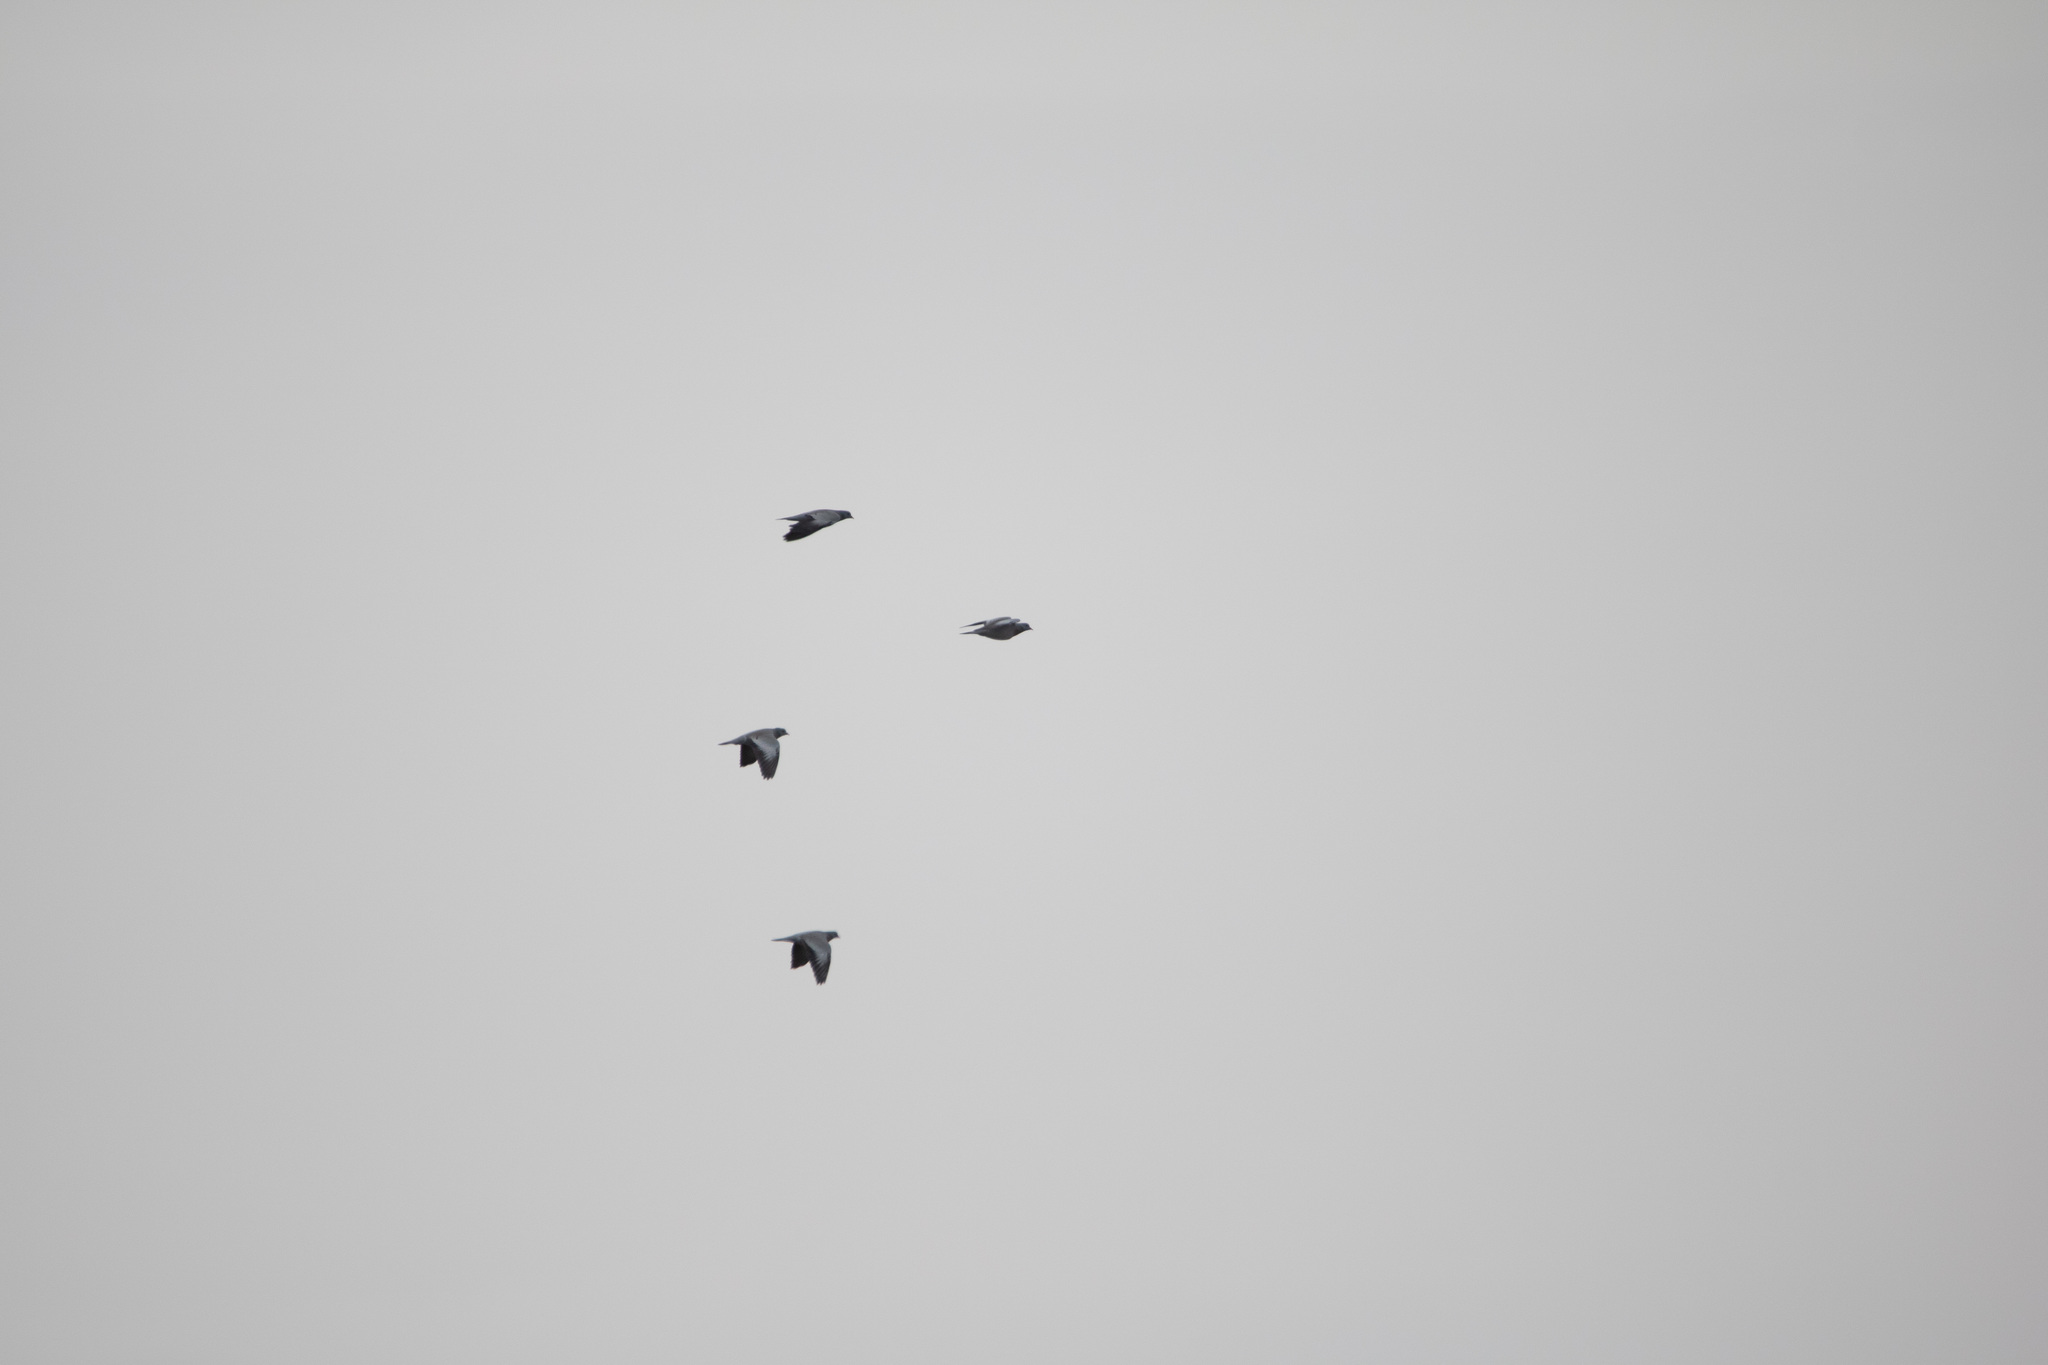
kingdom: Animalia
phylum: Chordata
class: Aves
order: Columbiformes
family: Columbidae
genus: Columba
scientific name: Columba oenas
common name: Stock dove
